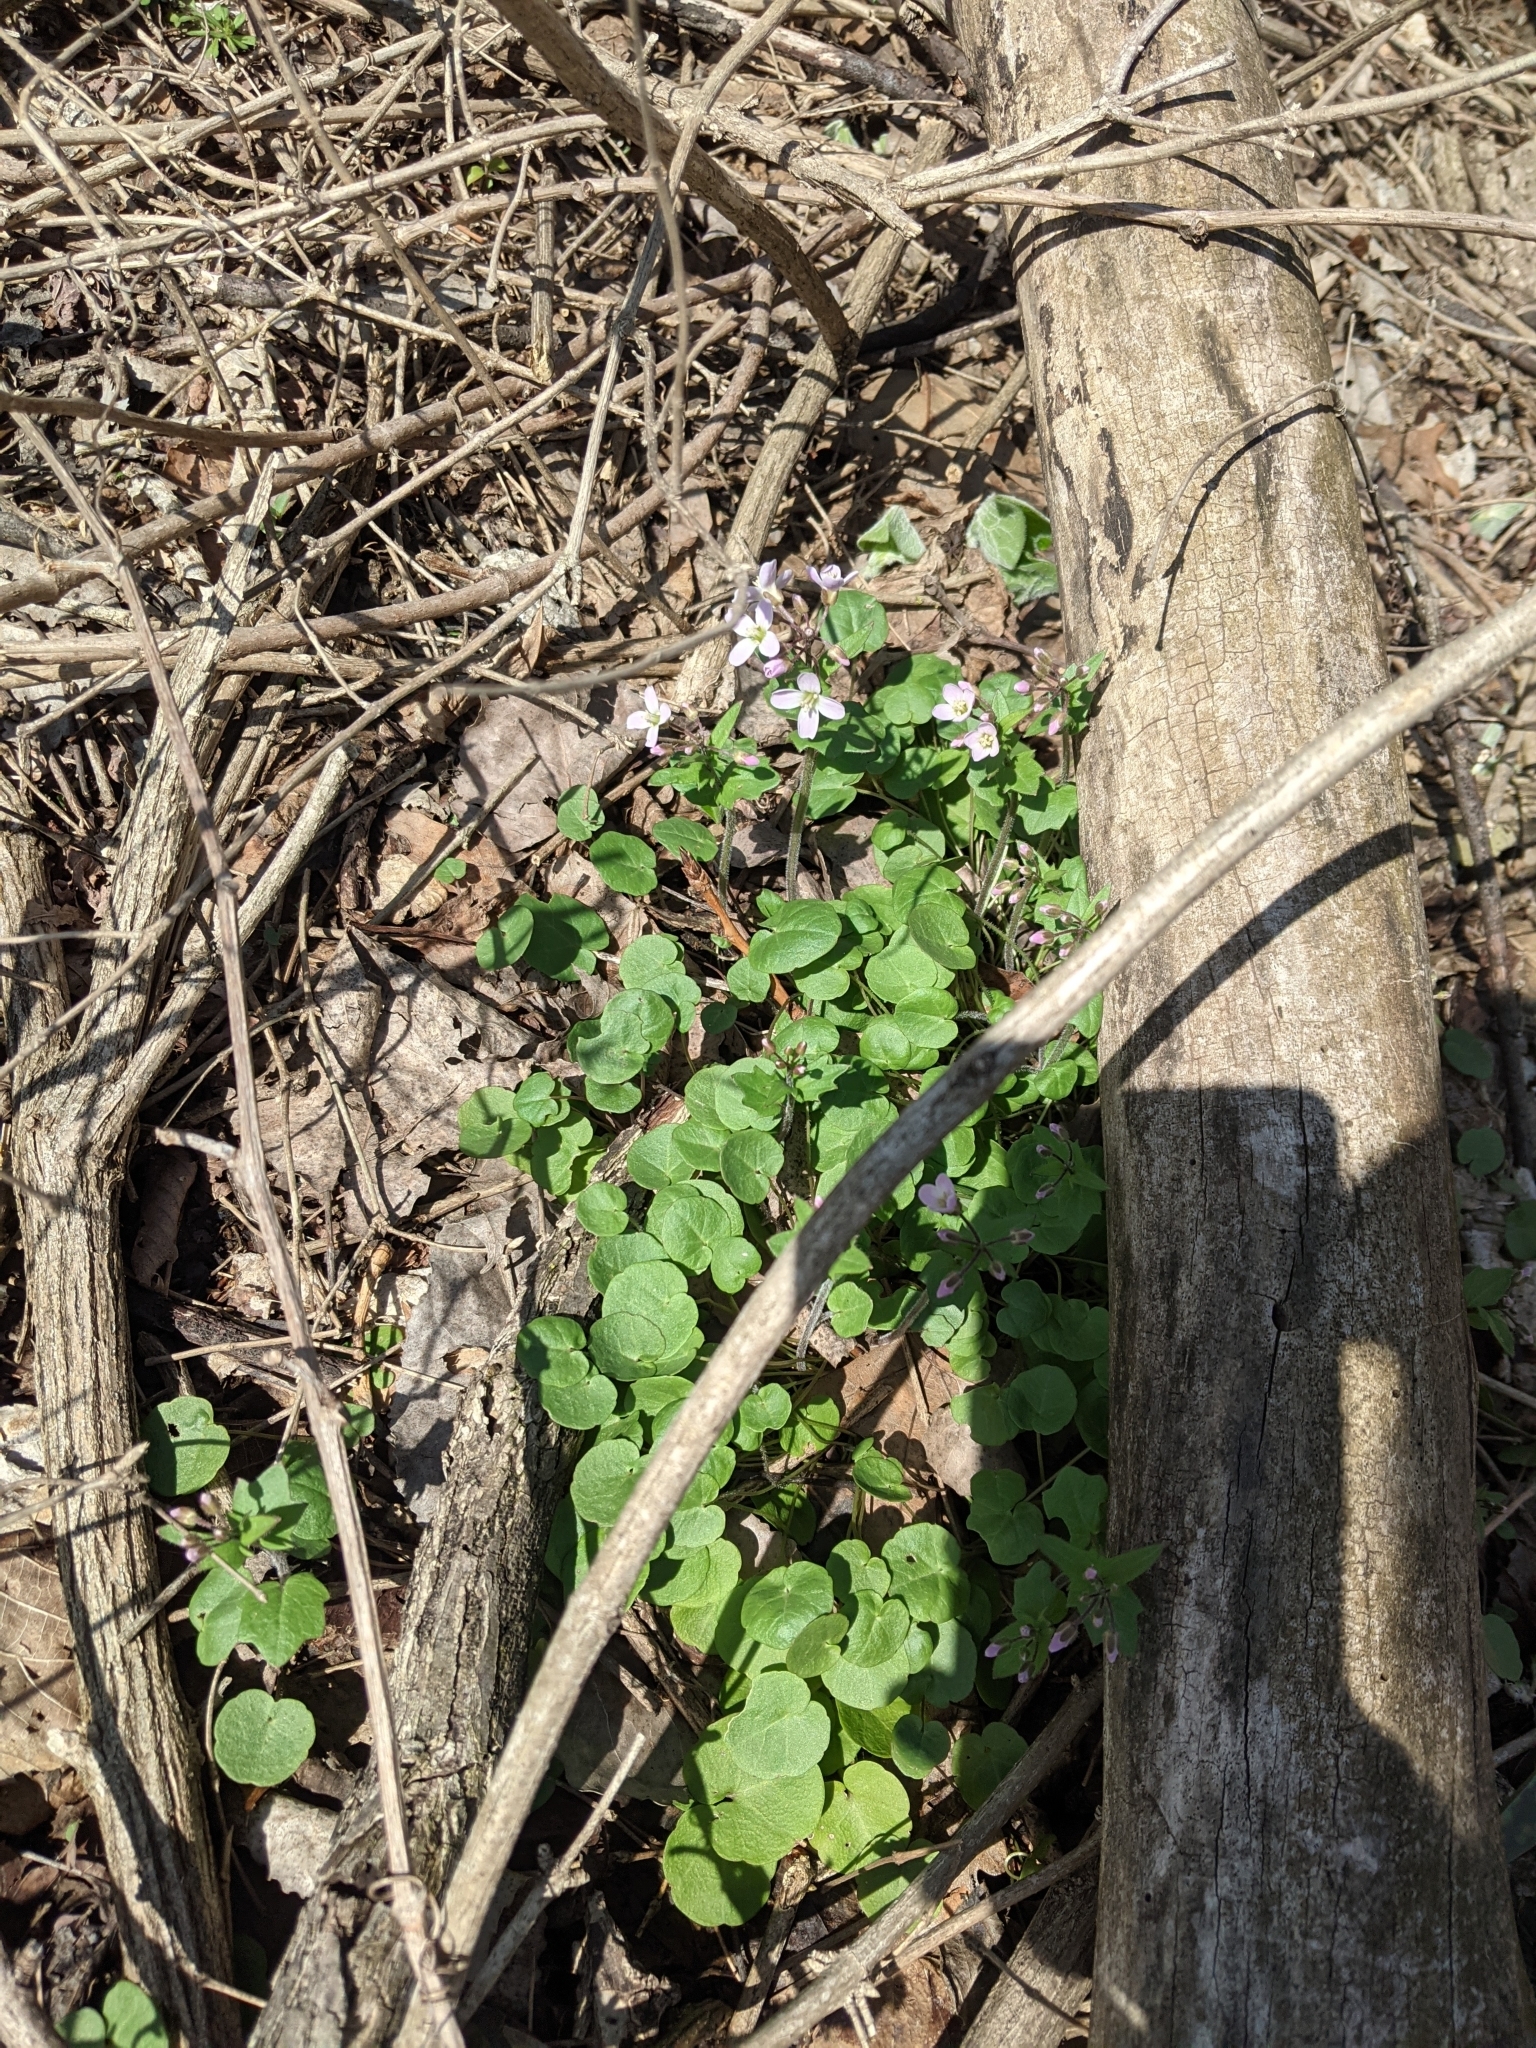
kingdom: Plantae
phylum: Tracheophyta
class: Magnoliopsida
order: Brassicales
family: Brassicaceae
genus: Cardamine
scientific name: Cardamine douglassii
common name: Purple cress
